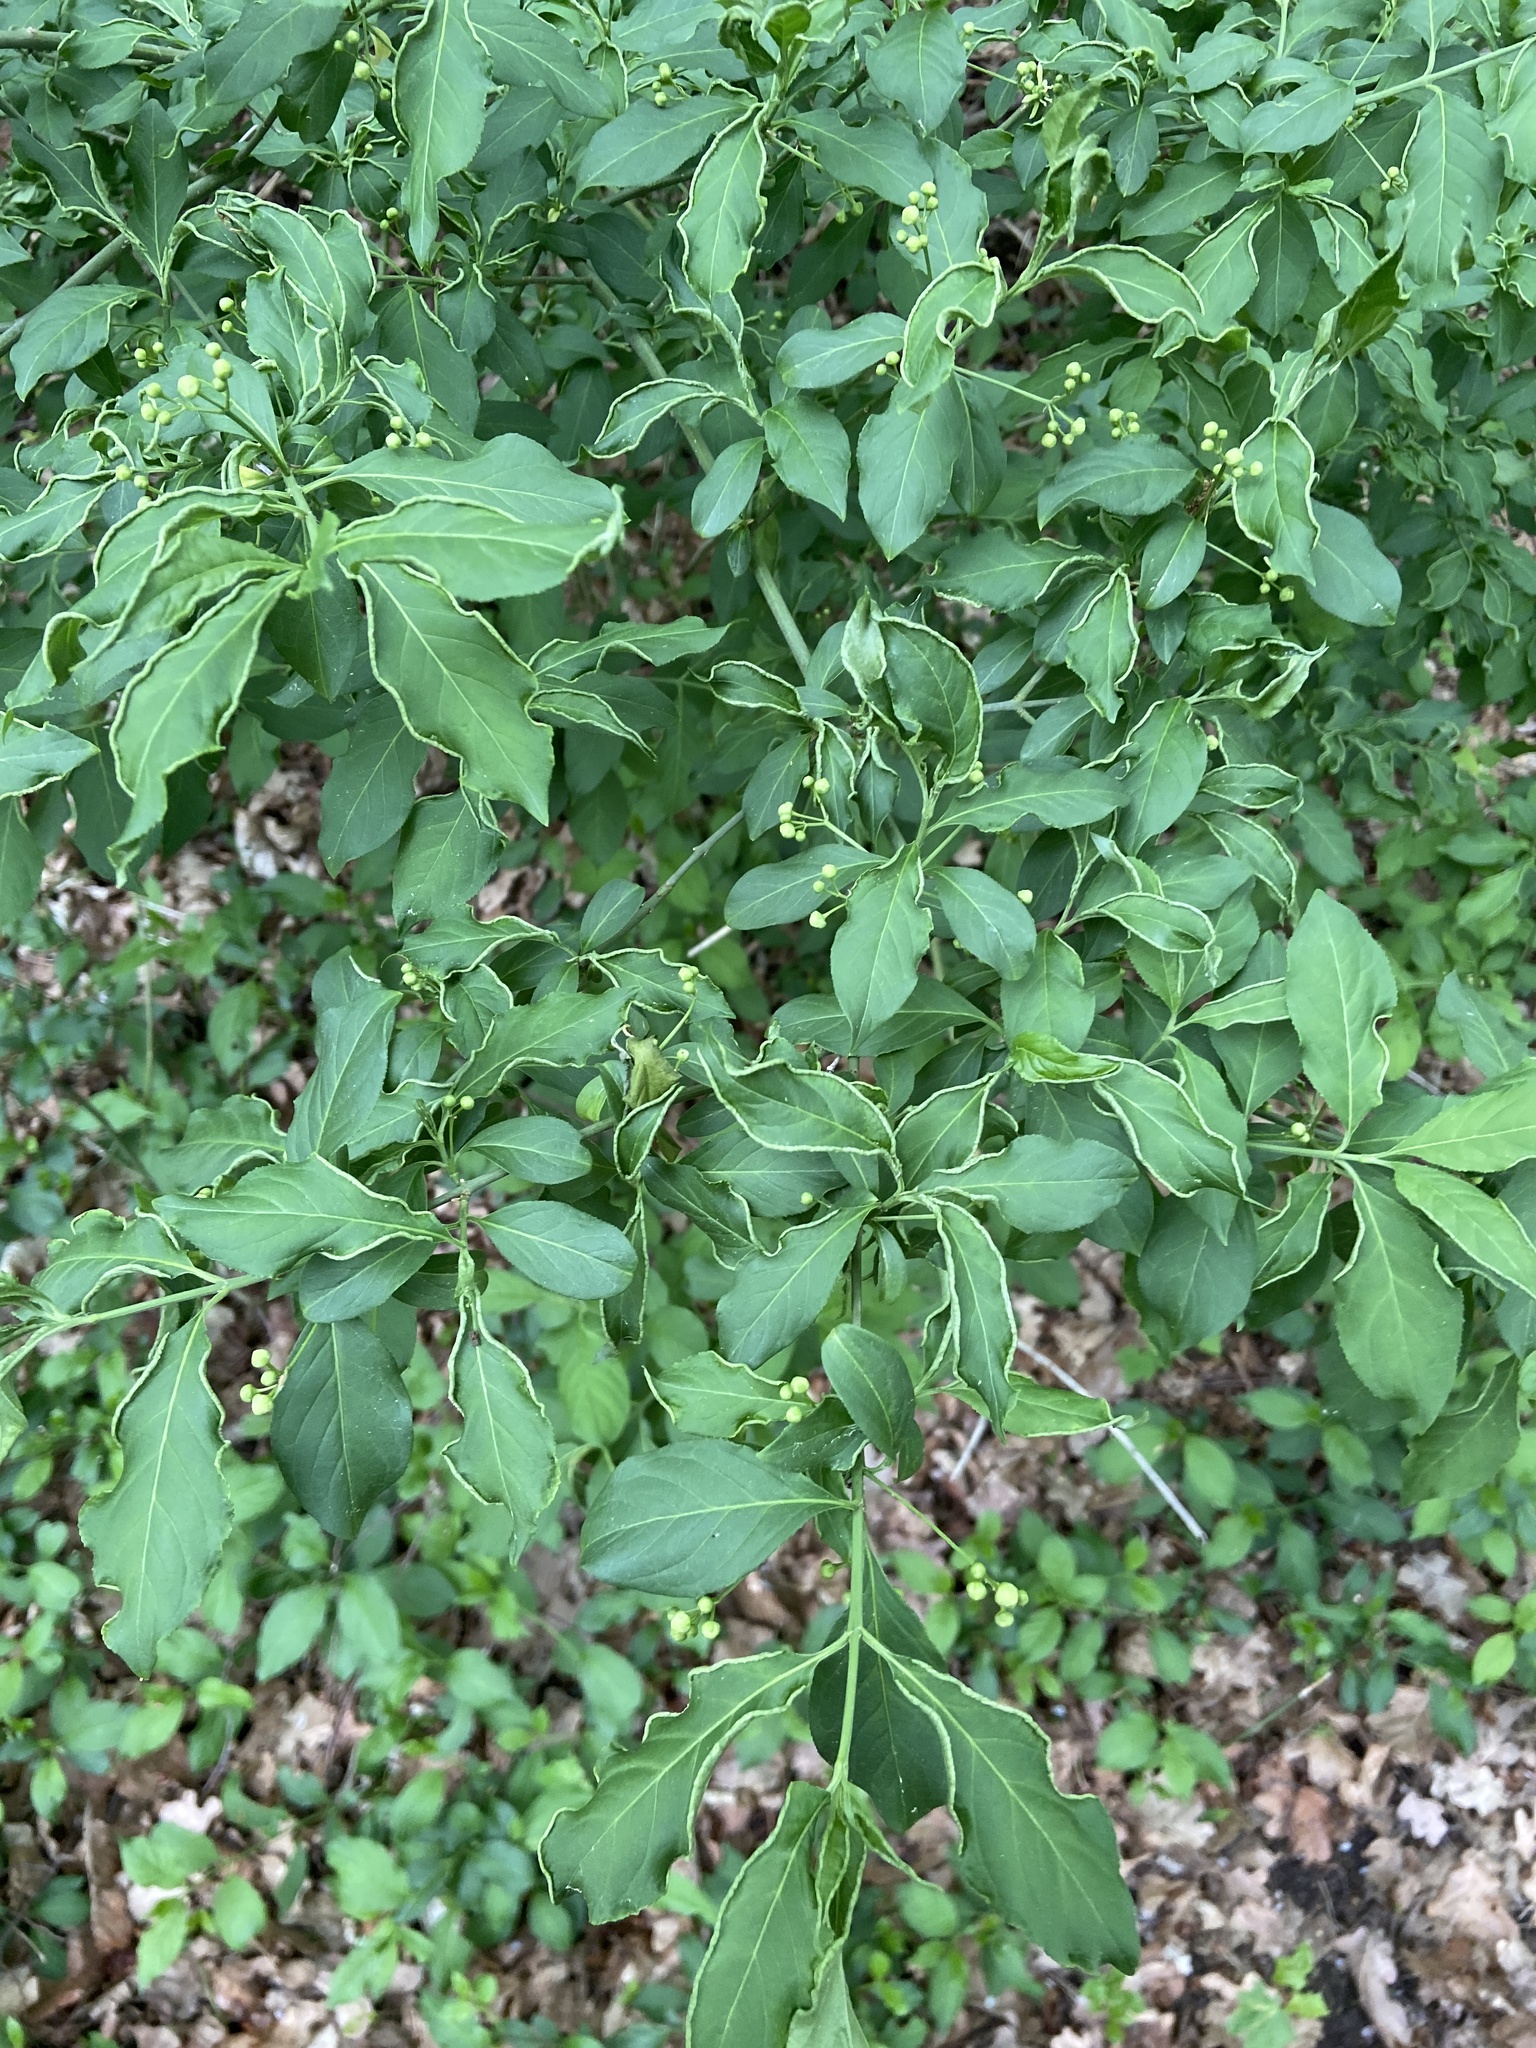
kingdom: Plantae
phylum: Tracheophyta
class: Magnoliopsida
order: Celastrales
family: Celastraceae
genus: Euonymus
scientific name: Euonymus europaeus
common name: Spindle
